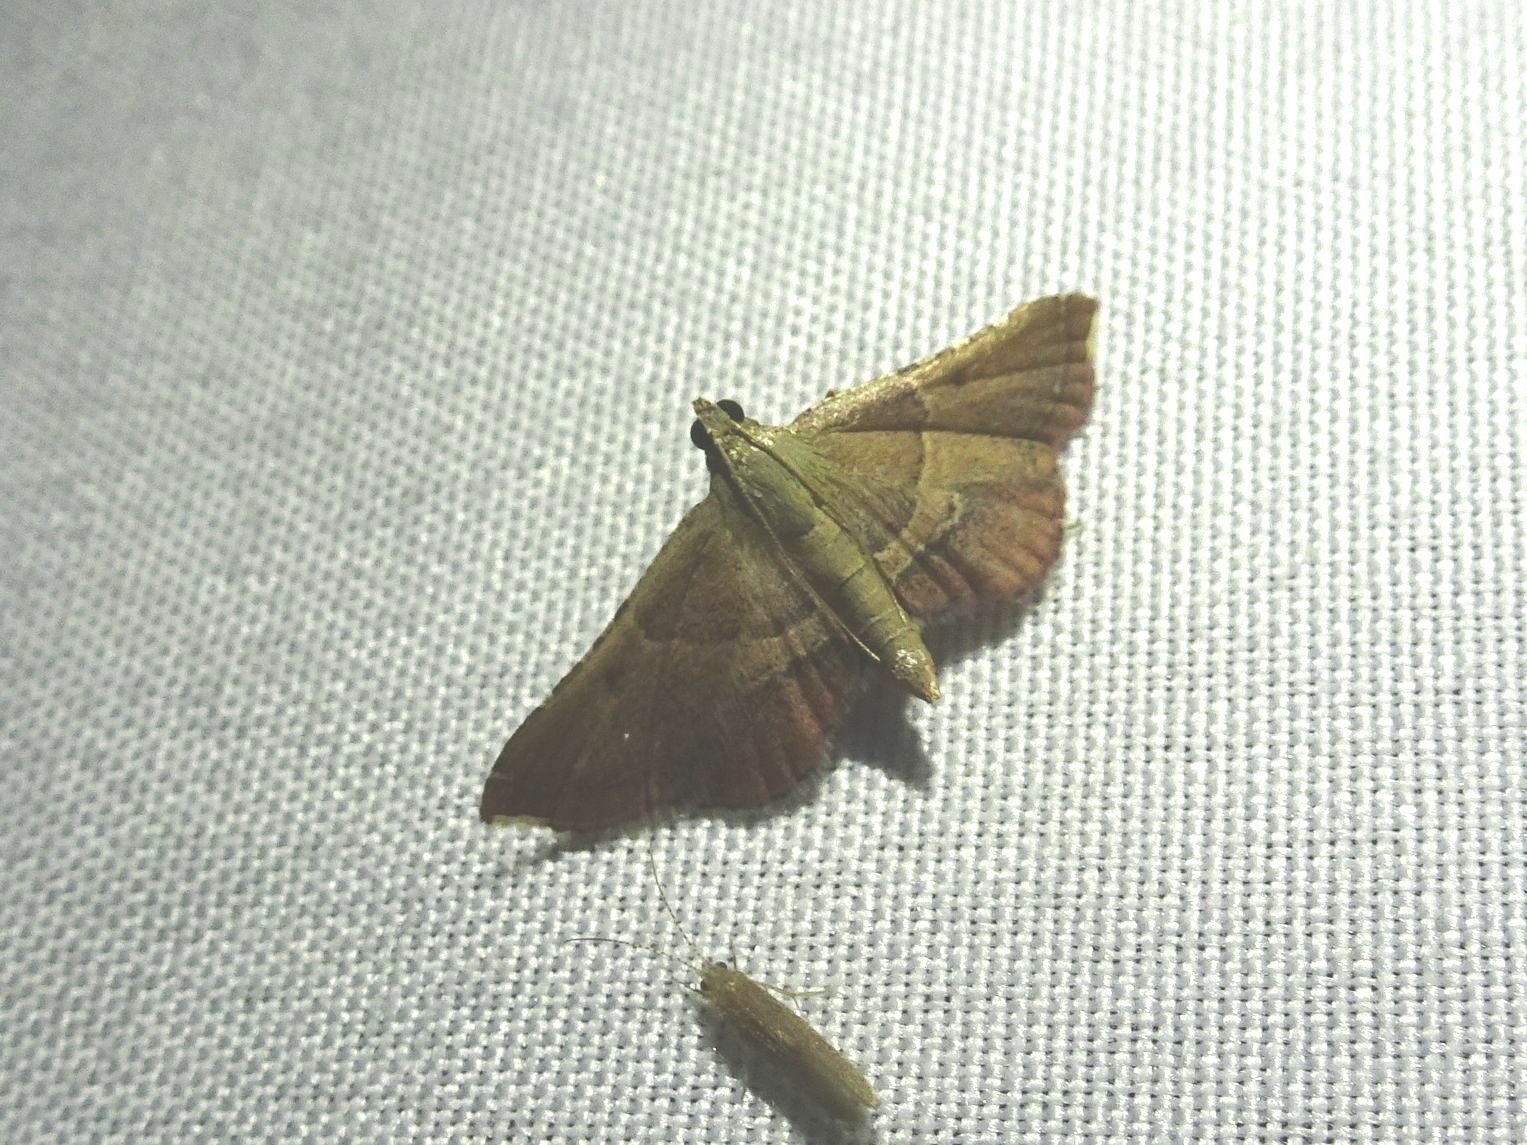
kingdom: Animalia
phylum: Arthropoda
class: Insecta
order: Lepidoptera
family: Pyralidae
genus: Endotricha
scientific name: Endotricha flammealis
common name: Rosy tabby
